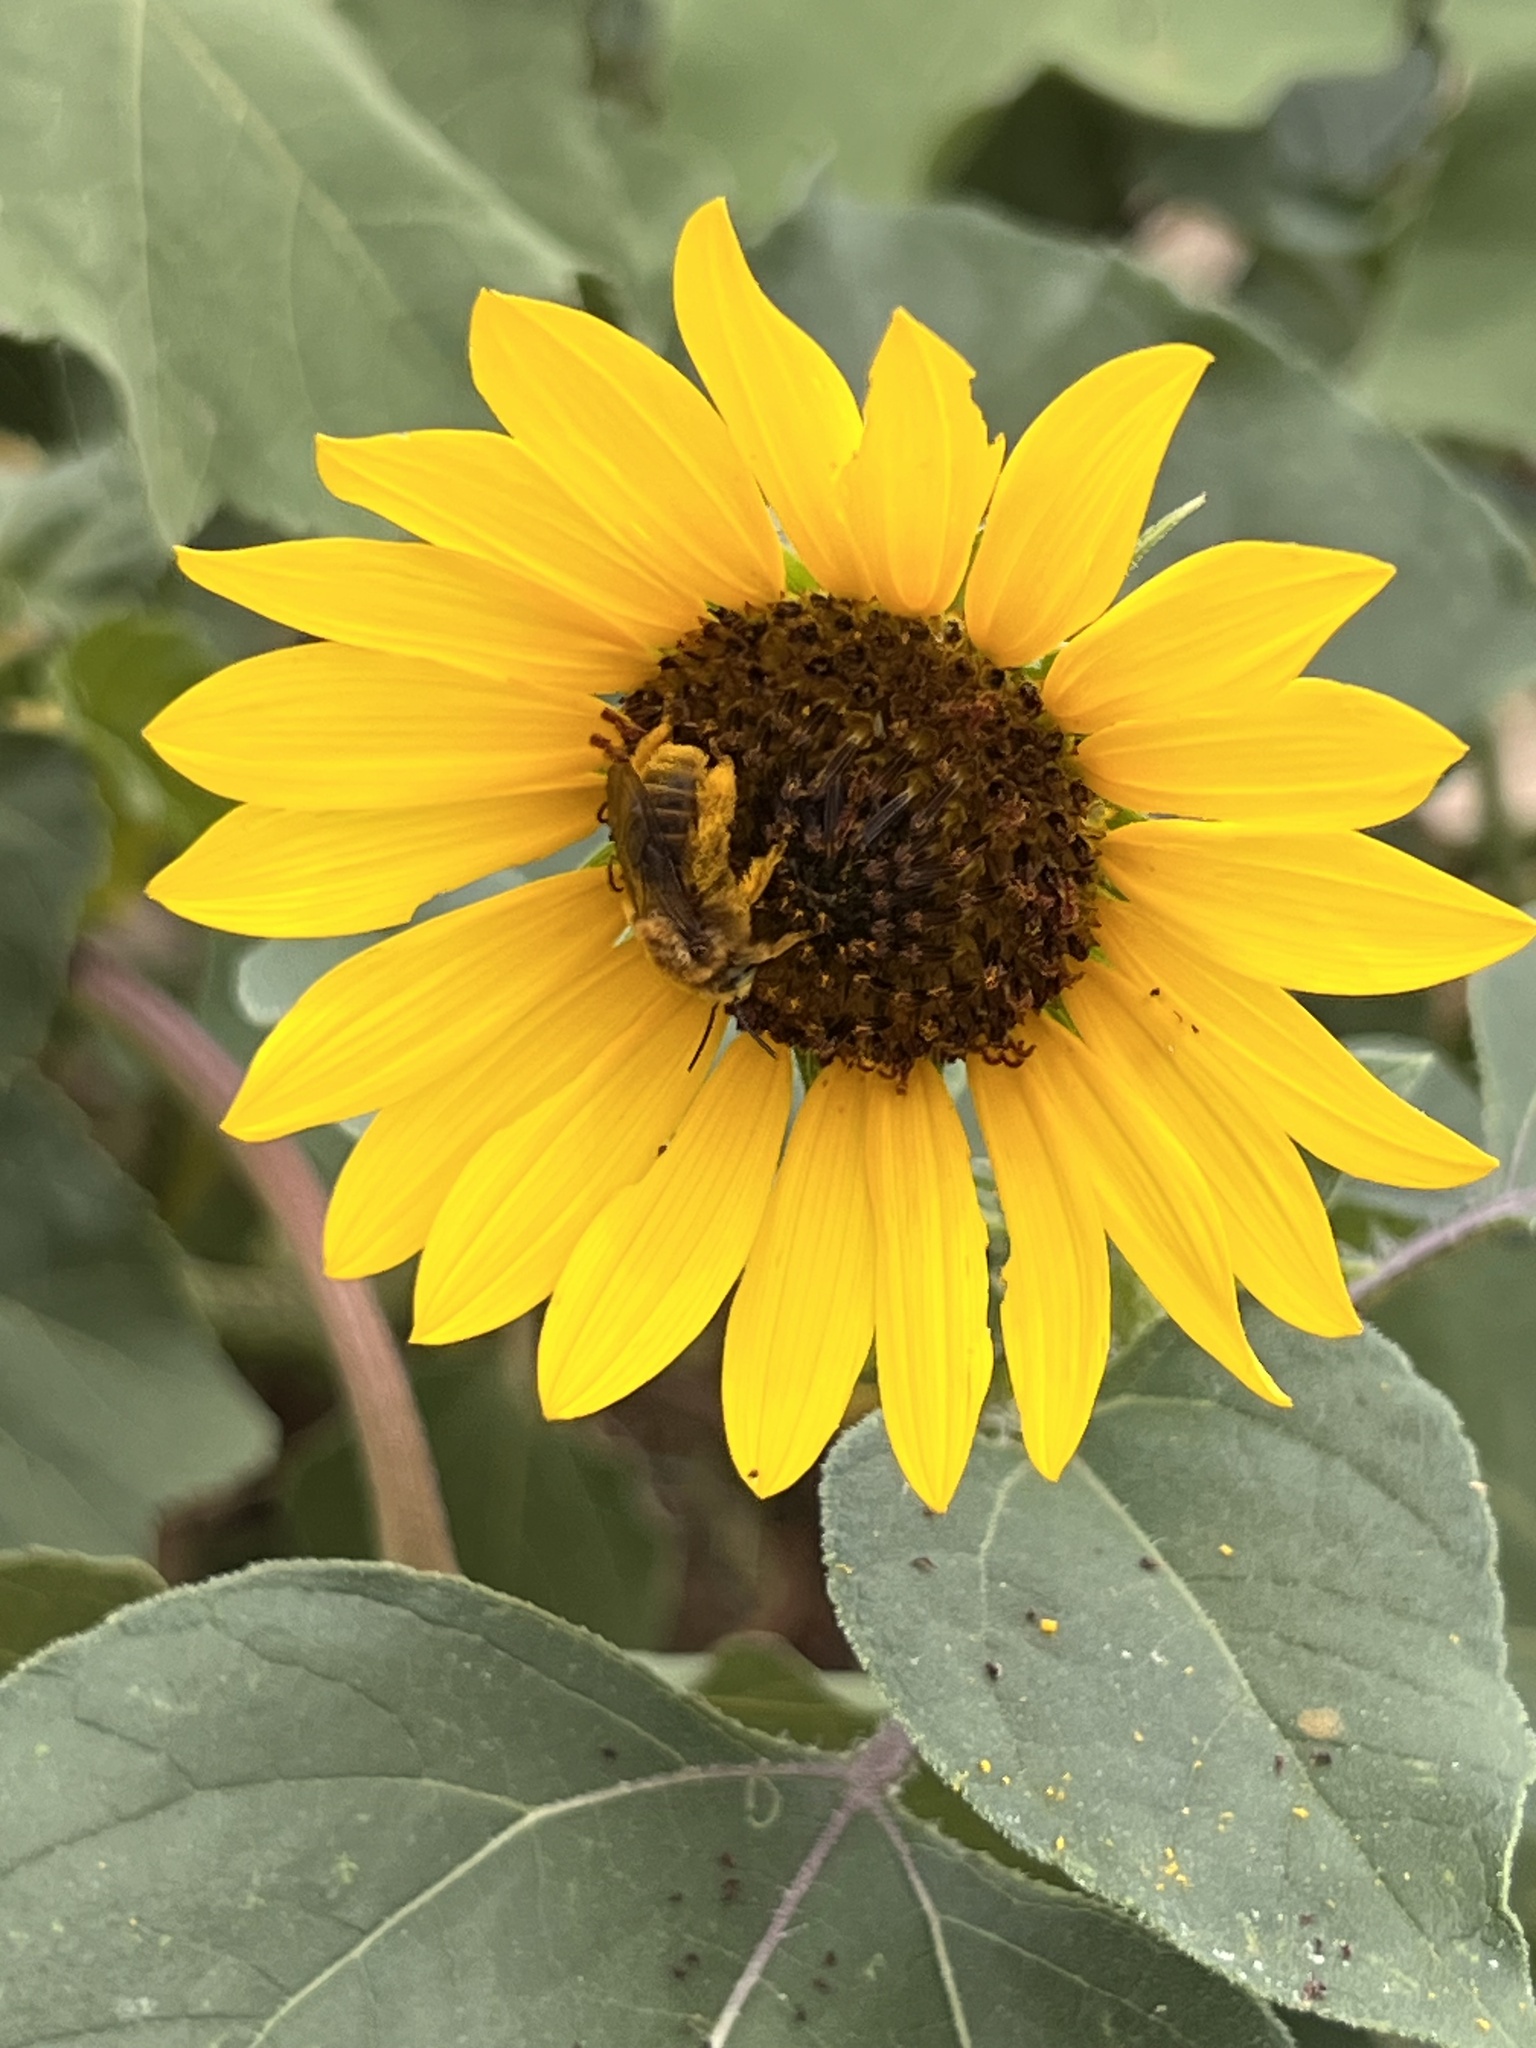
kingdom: Animalia
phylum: Arthropoda
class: Insecta
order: Hymenoptera
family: Apidae
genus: Diadasia
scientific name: Diadasia enavata
